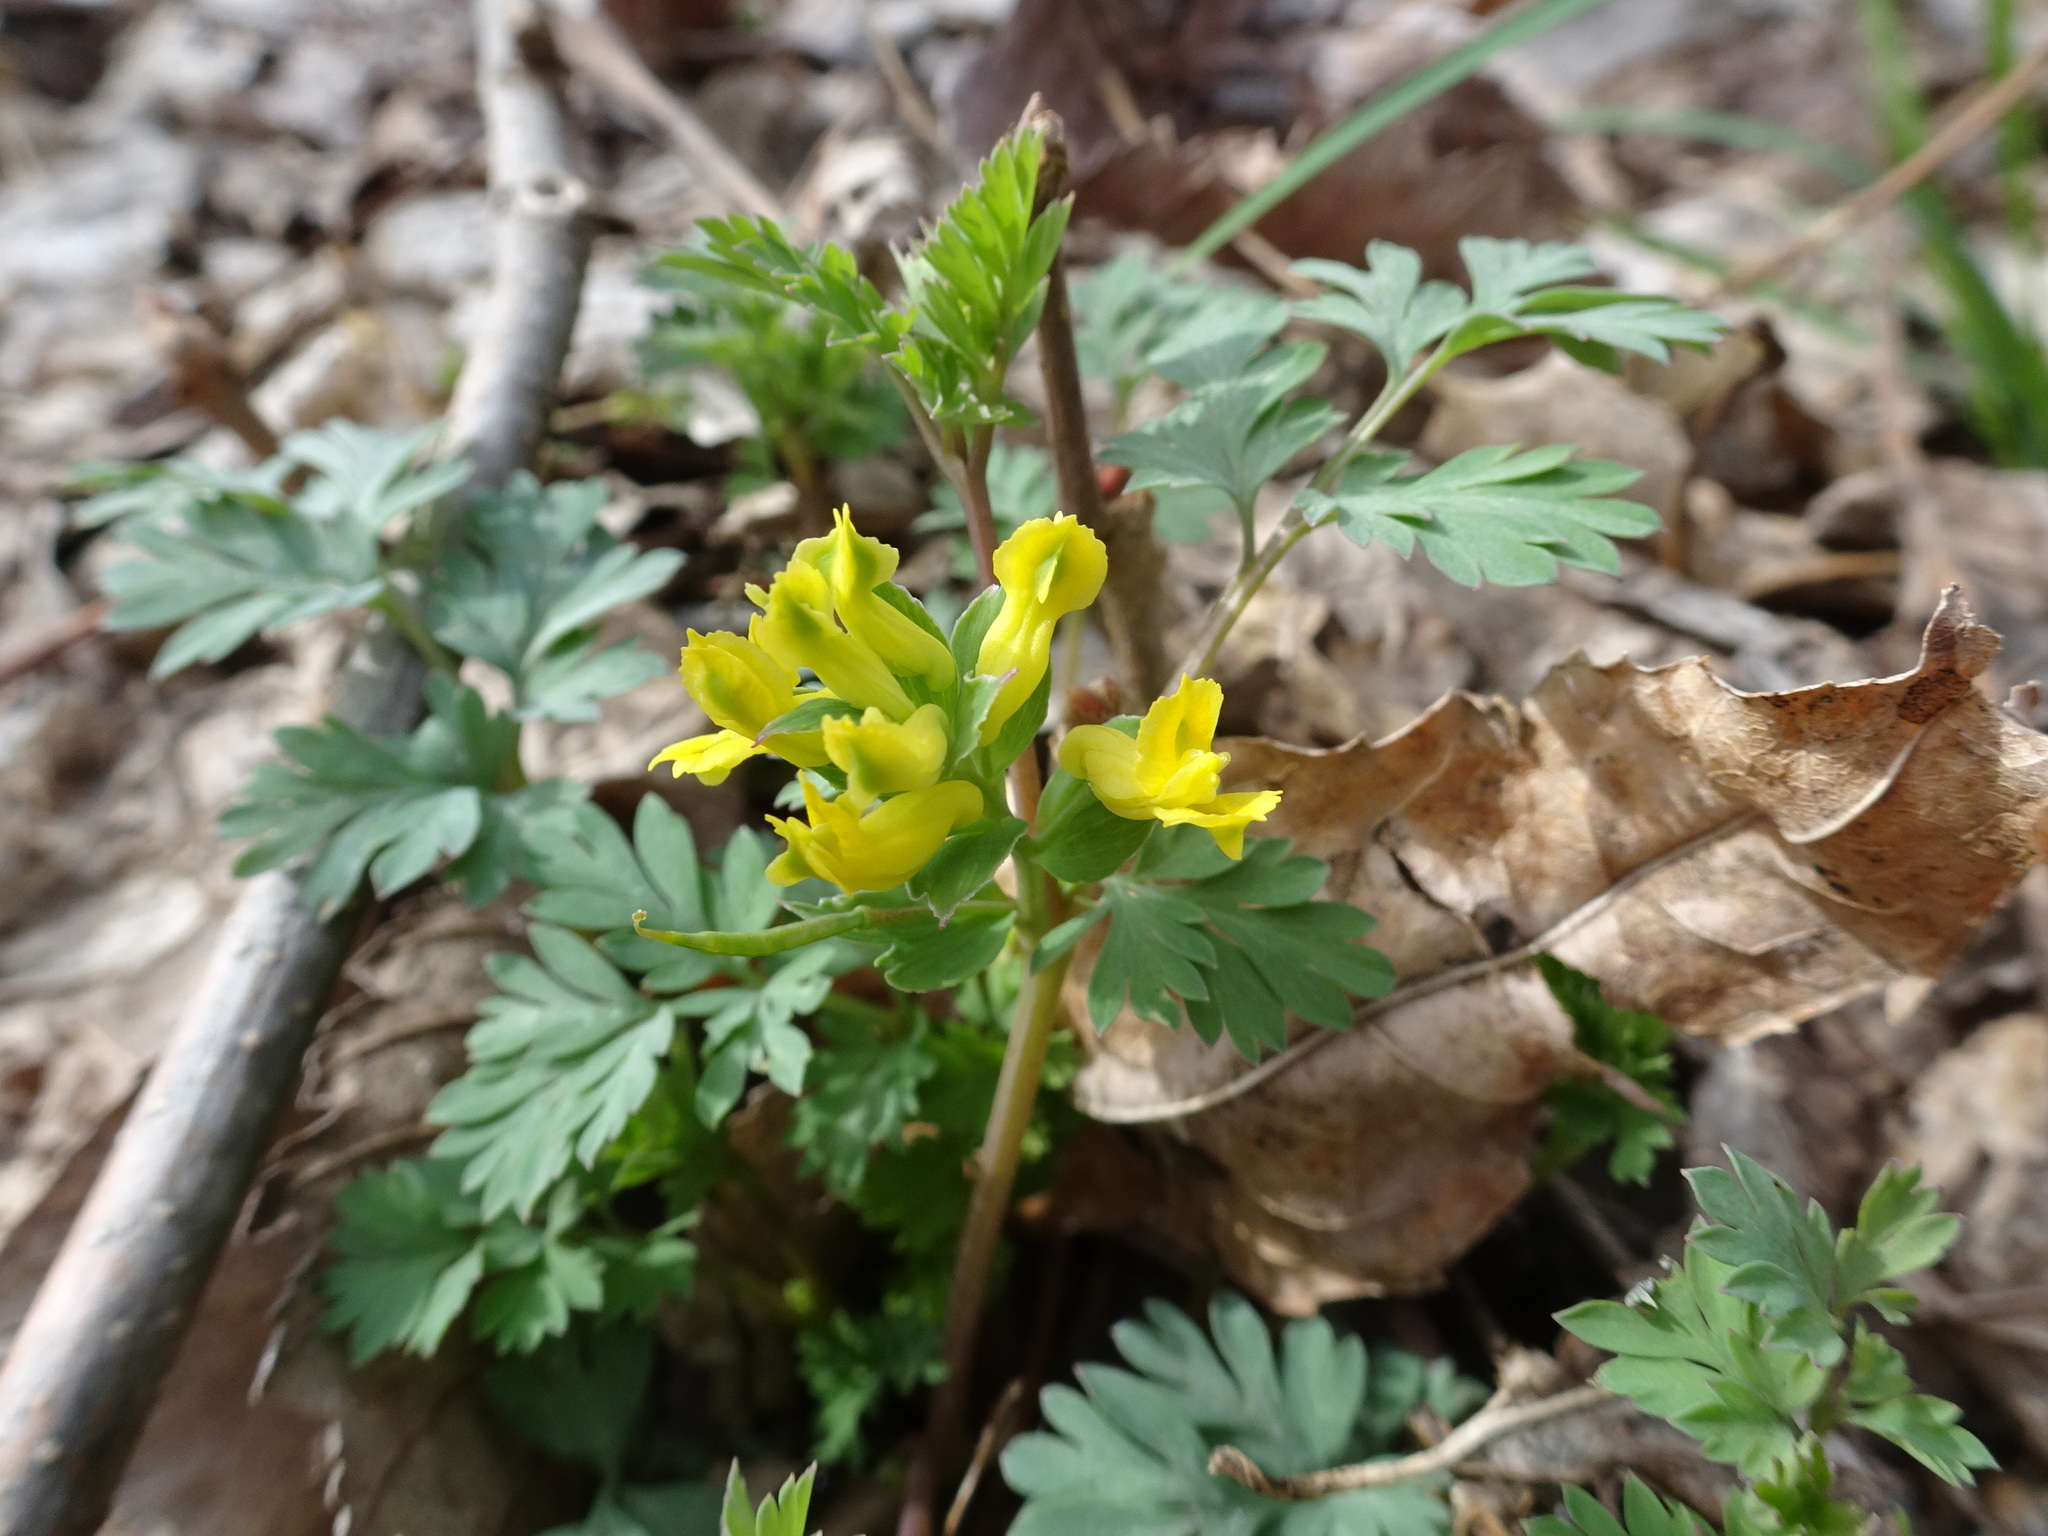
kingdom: Plantae
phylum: Tracheophyta
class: Magnoliopsida
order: Ranunculales
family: Papaveraceae
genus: Corydalis
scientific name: Corydalis flavula
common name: Yellow corydalis
